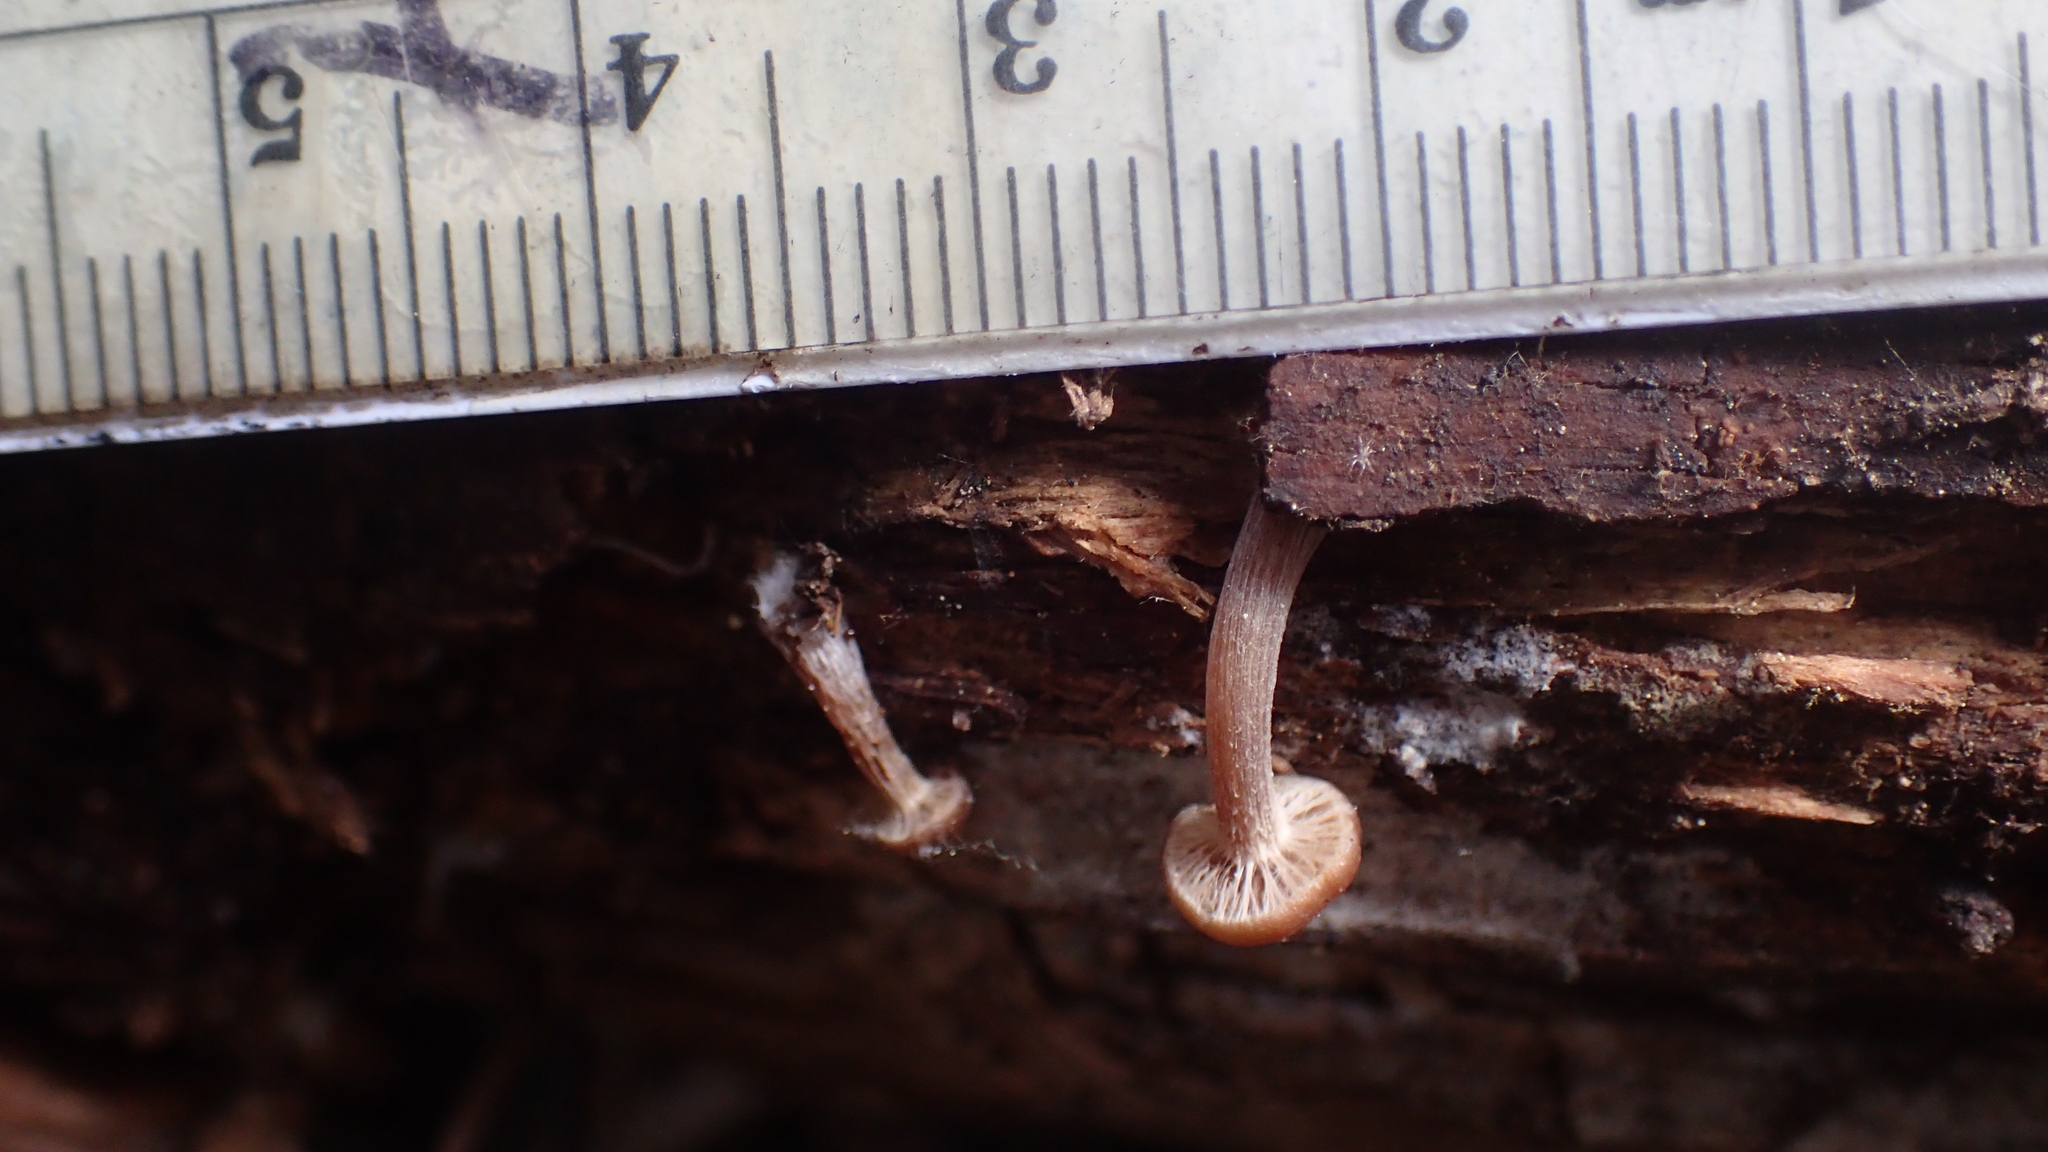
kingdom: Fungi
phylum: Basidiomycota
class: Agaricomycetes
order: Agaricales
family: Strophariaceae
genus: Kuehneromyces
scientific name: Kuehneromyces obscurus
